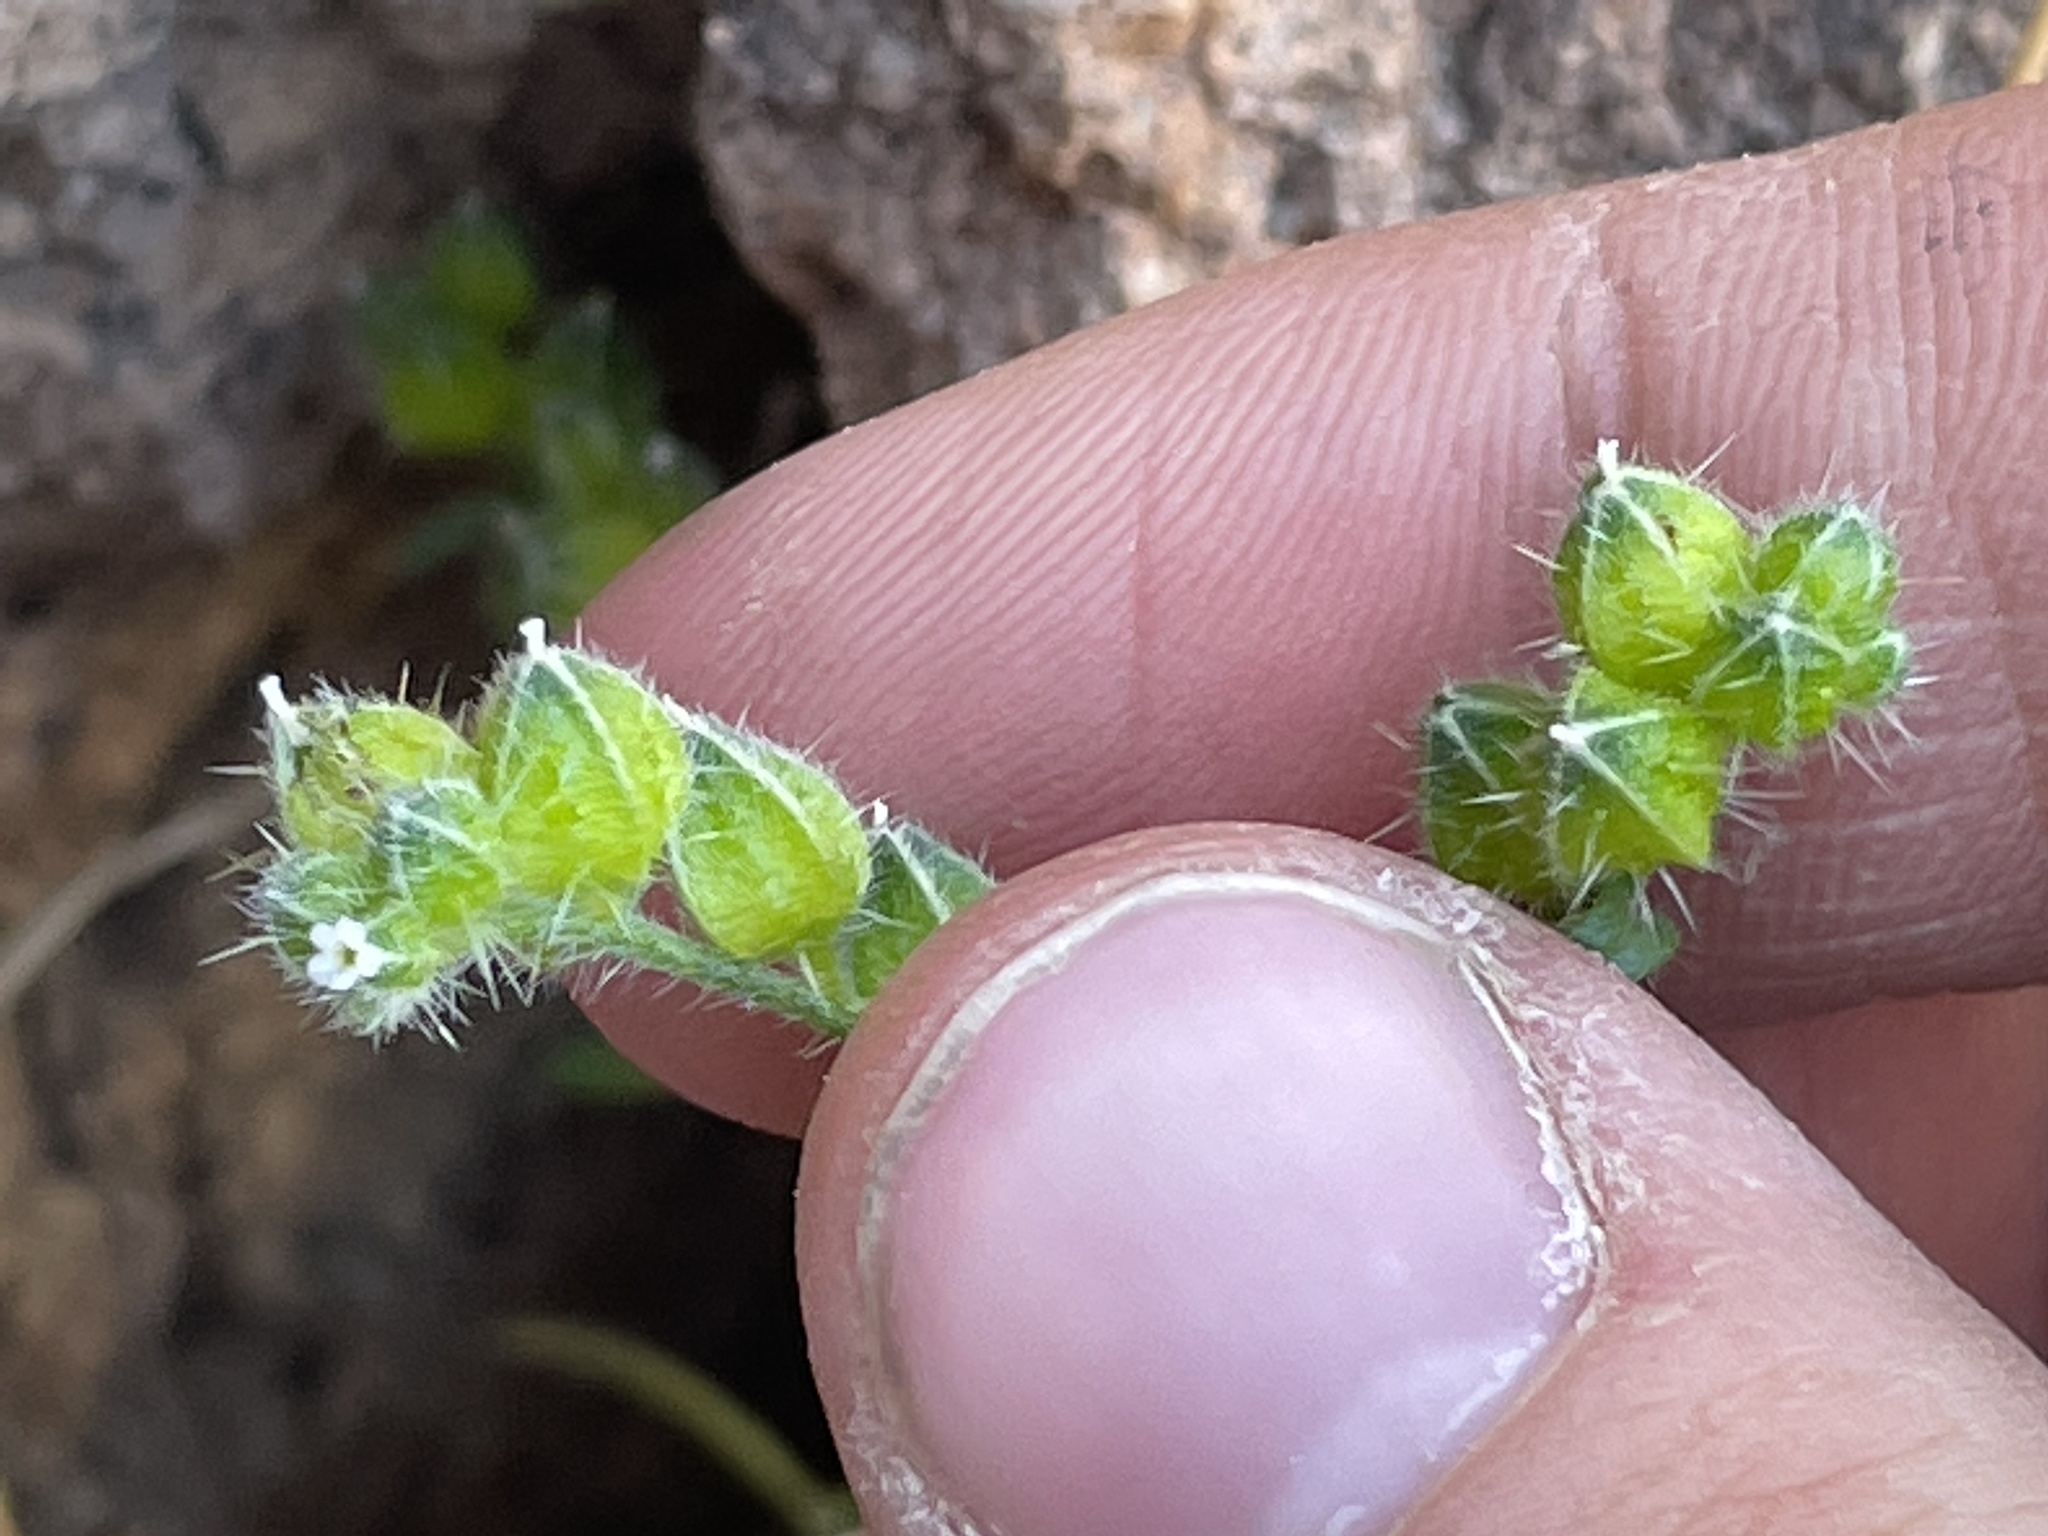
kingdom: Plantae
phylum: Tracheophyta
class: Magnoliopsida
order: Boraginales
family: Boraginaceae
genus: Cryptantha
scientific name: Cryptantha pterocarya
